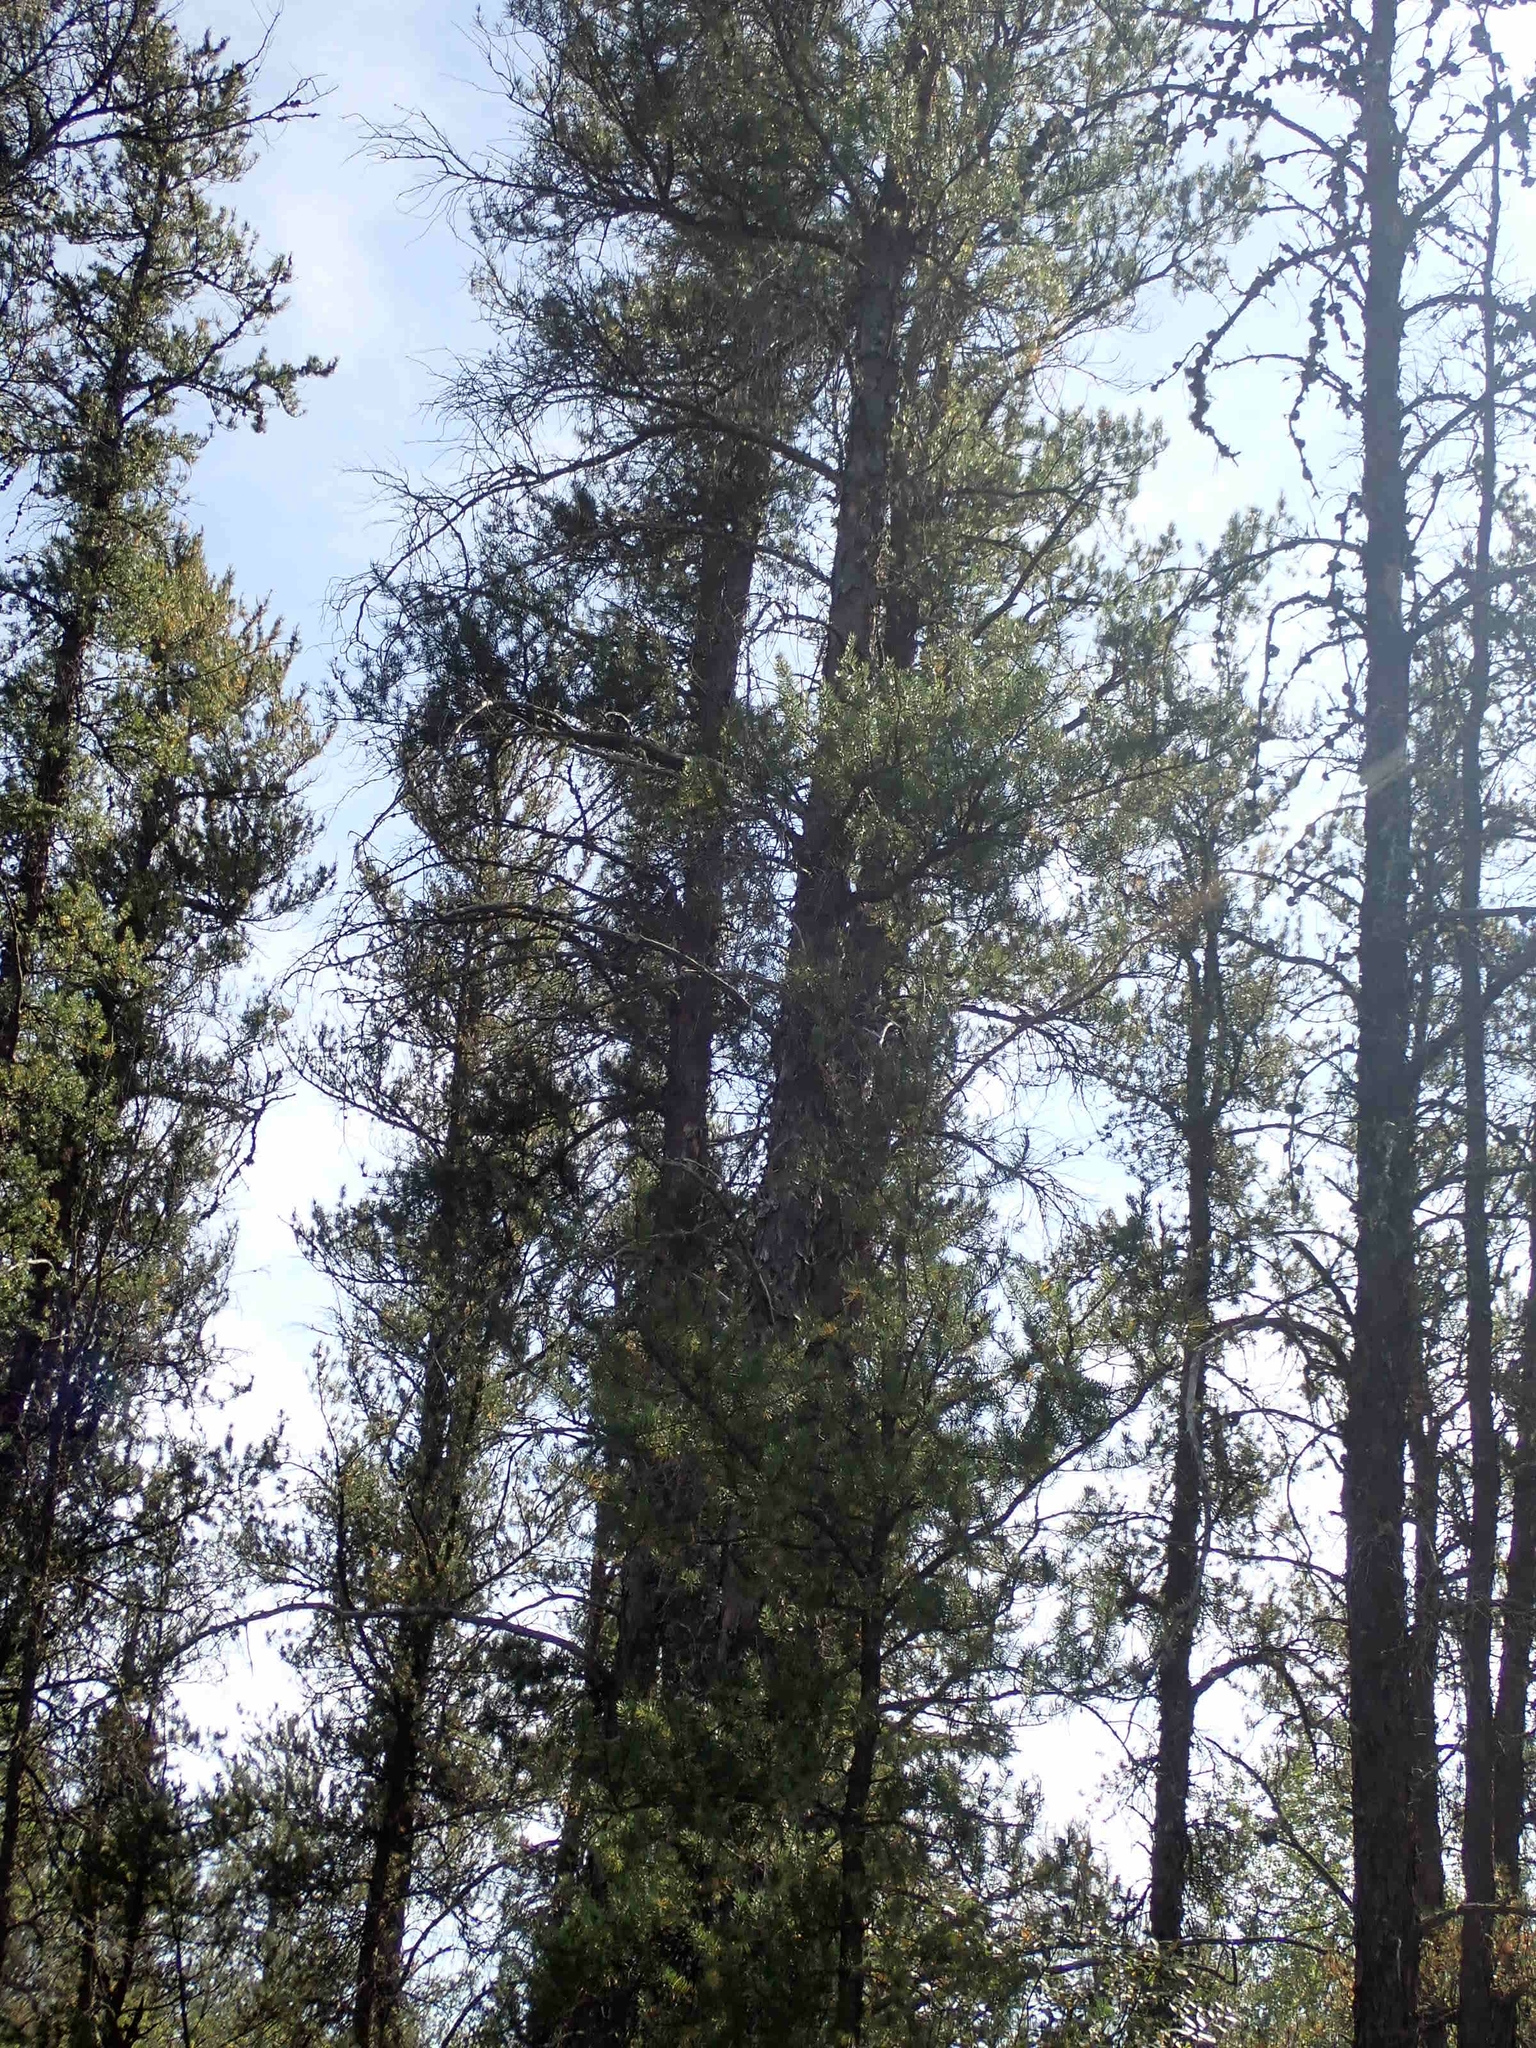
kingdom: Plantae
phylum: Tracheophyta
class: Pinopsida
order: Pinales
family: Pinaceae
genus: Pinus
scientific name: Pinus banksiana
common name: Jack pine
